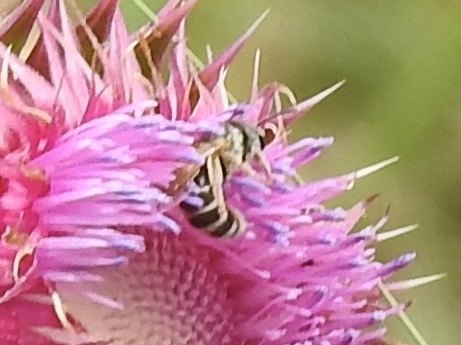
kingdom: Animalia
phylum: Arthropoda
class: Insecta
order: Hymenoptera
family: Halictidae
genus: Halictus
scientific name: Halictus ligatus
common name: Ligated furrow bee
